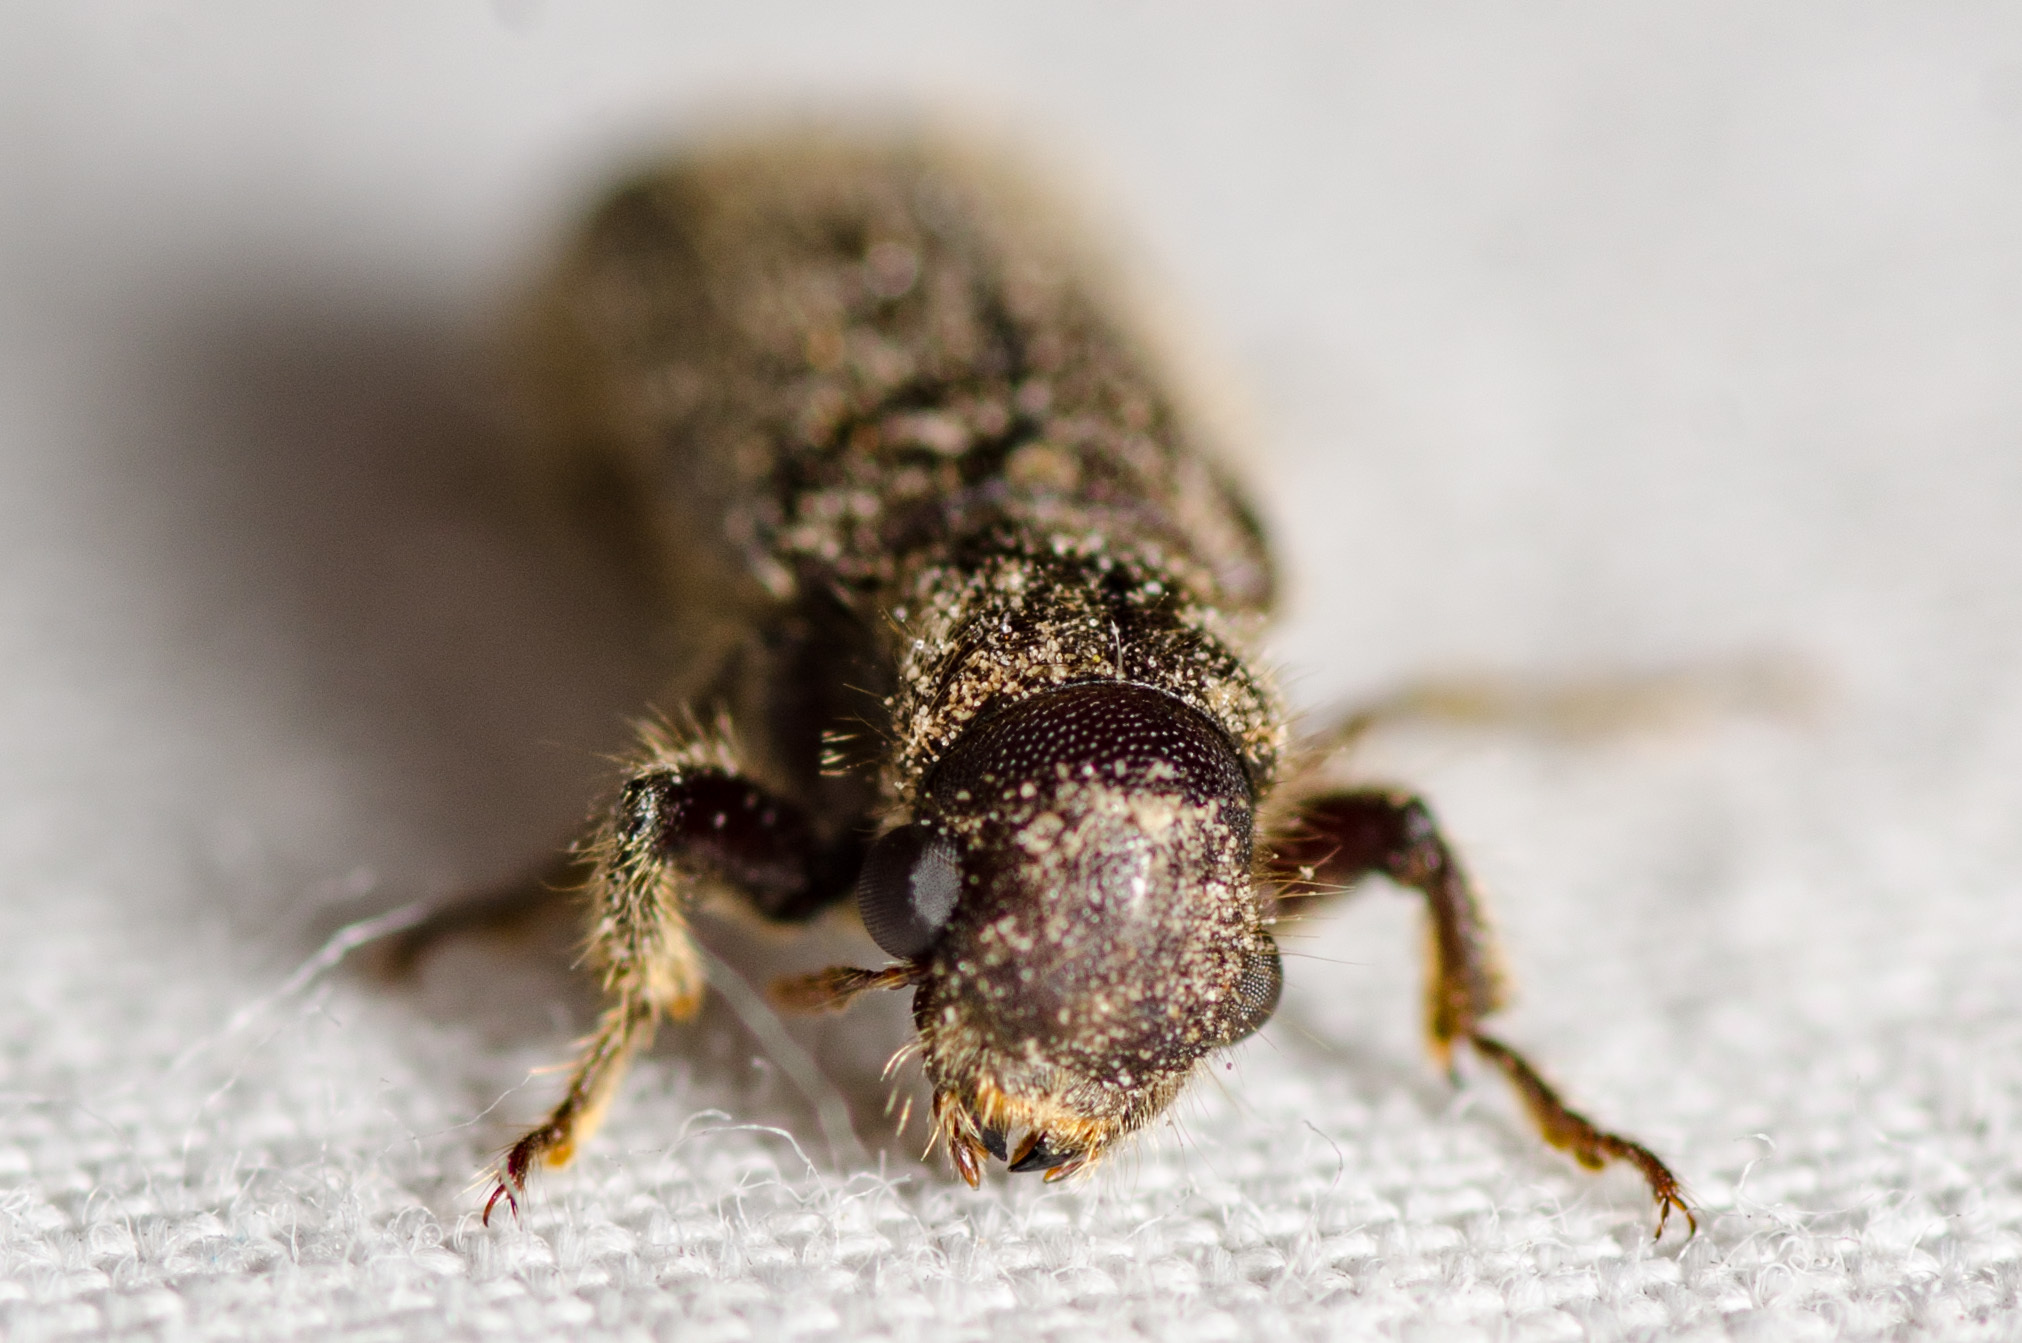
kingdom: Animalia
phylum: Arthropoda
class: Insecta
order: Coleoptera
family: Bostrichidae
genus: Melalgus
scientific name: Melalgus plicatus
